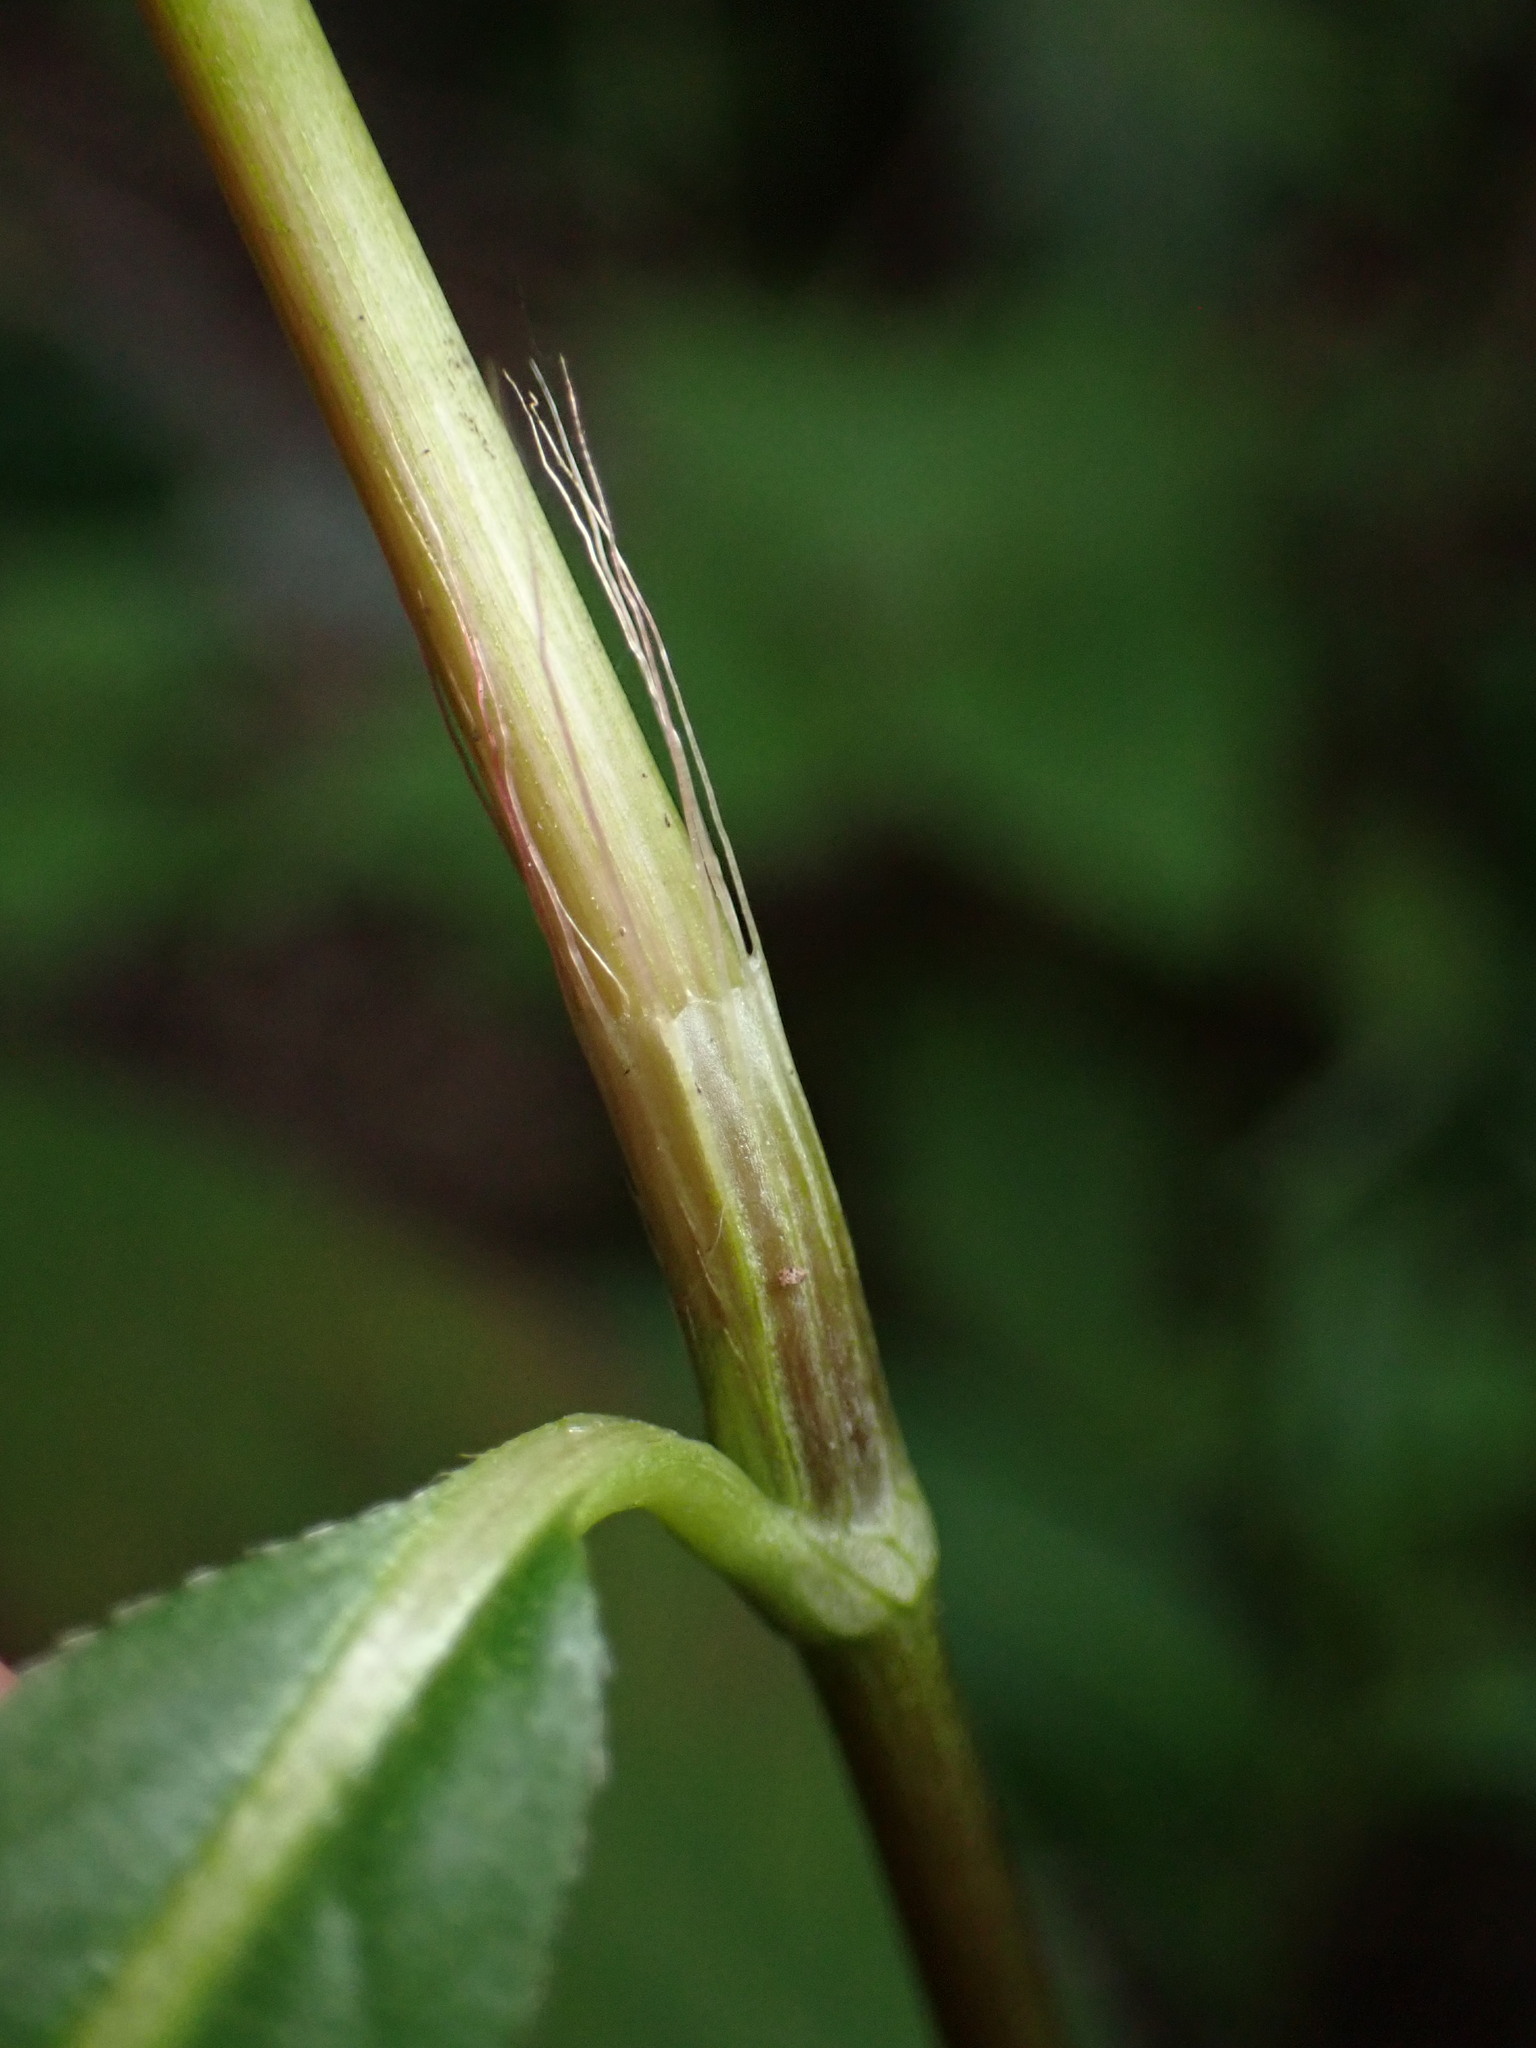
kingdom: Plantae
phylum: Tracheophyta
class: Magnoliopsida
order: Caryophyllales
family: Polygonaceae
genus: Persicaria
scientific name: Persicaria longiseta
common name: Bristly lady's-thumb
